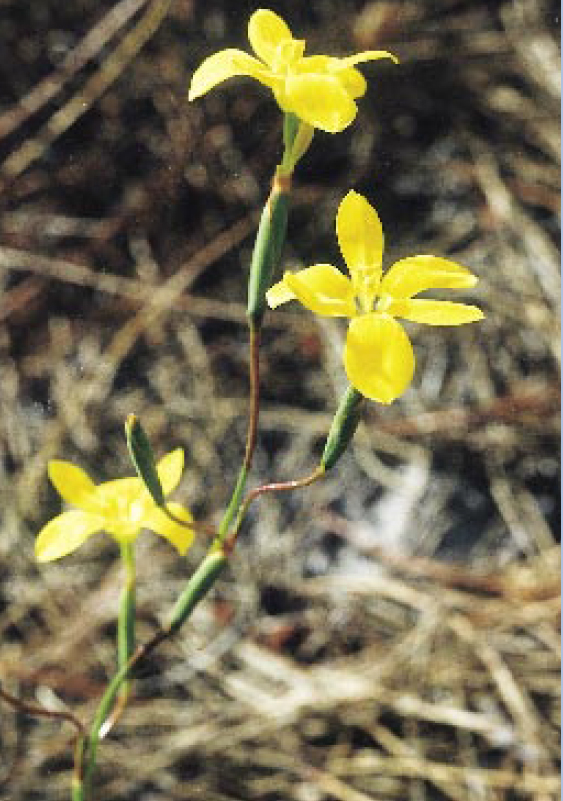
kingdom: Plantae
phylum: Tracheophyta
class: Liliopsida
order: Asparagales
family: Iridaceae
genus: Moraea
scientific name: Moraea elsiae
